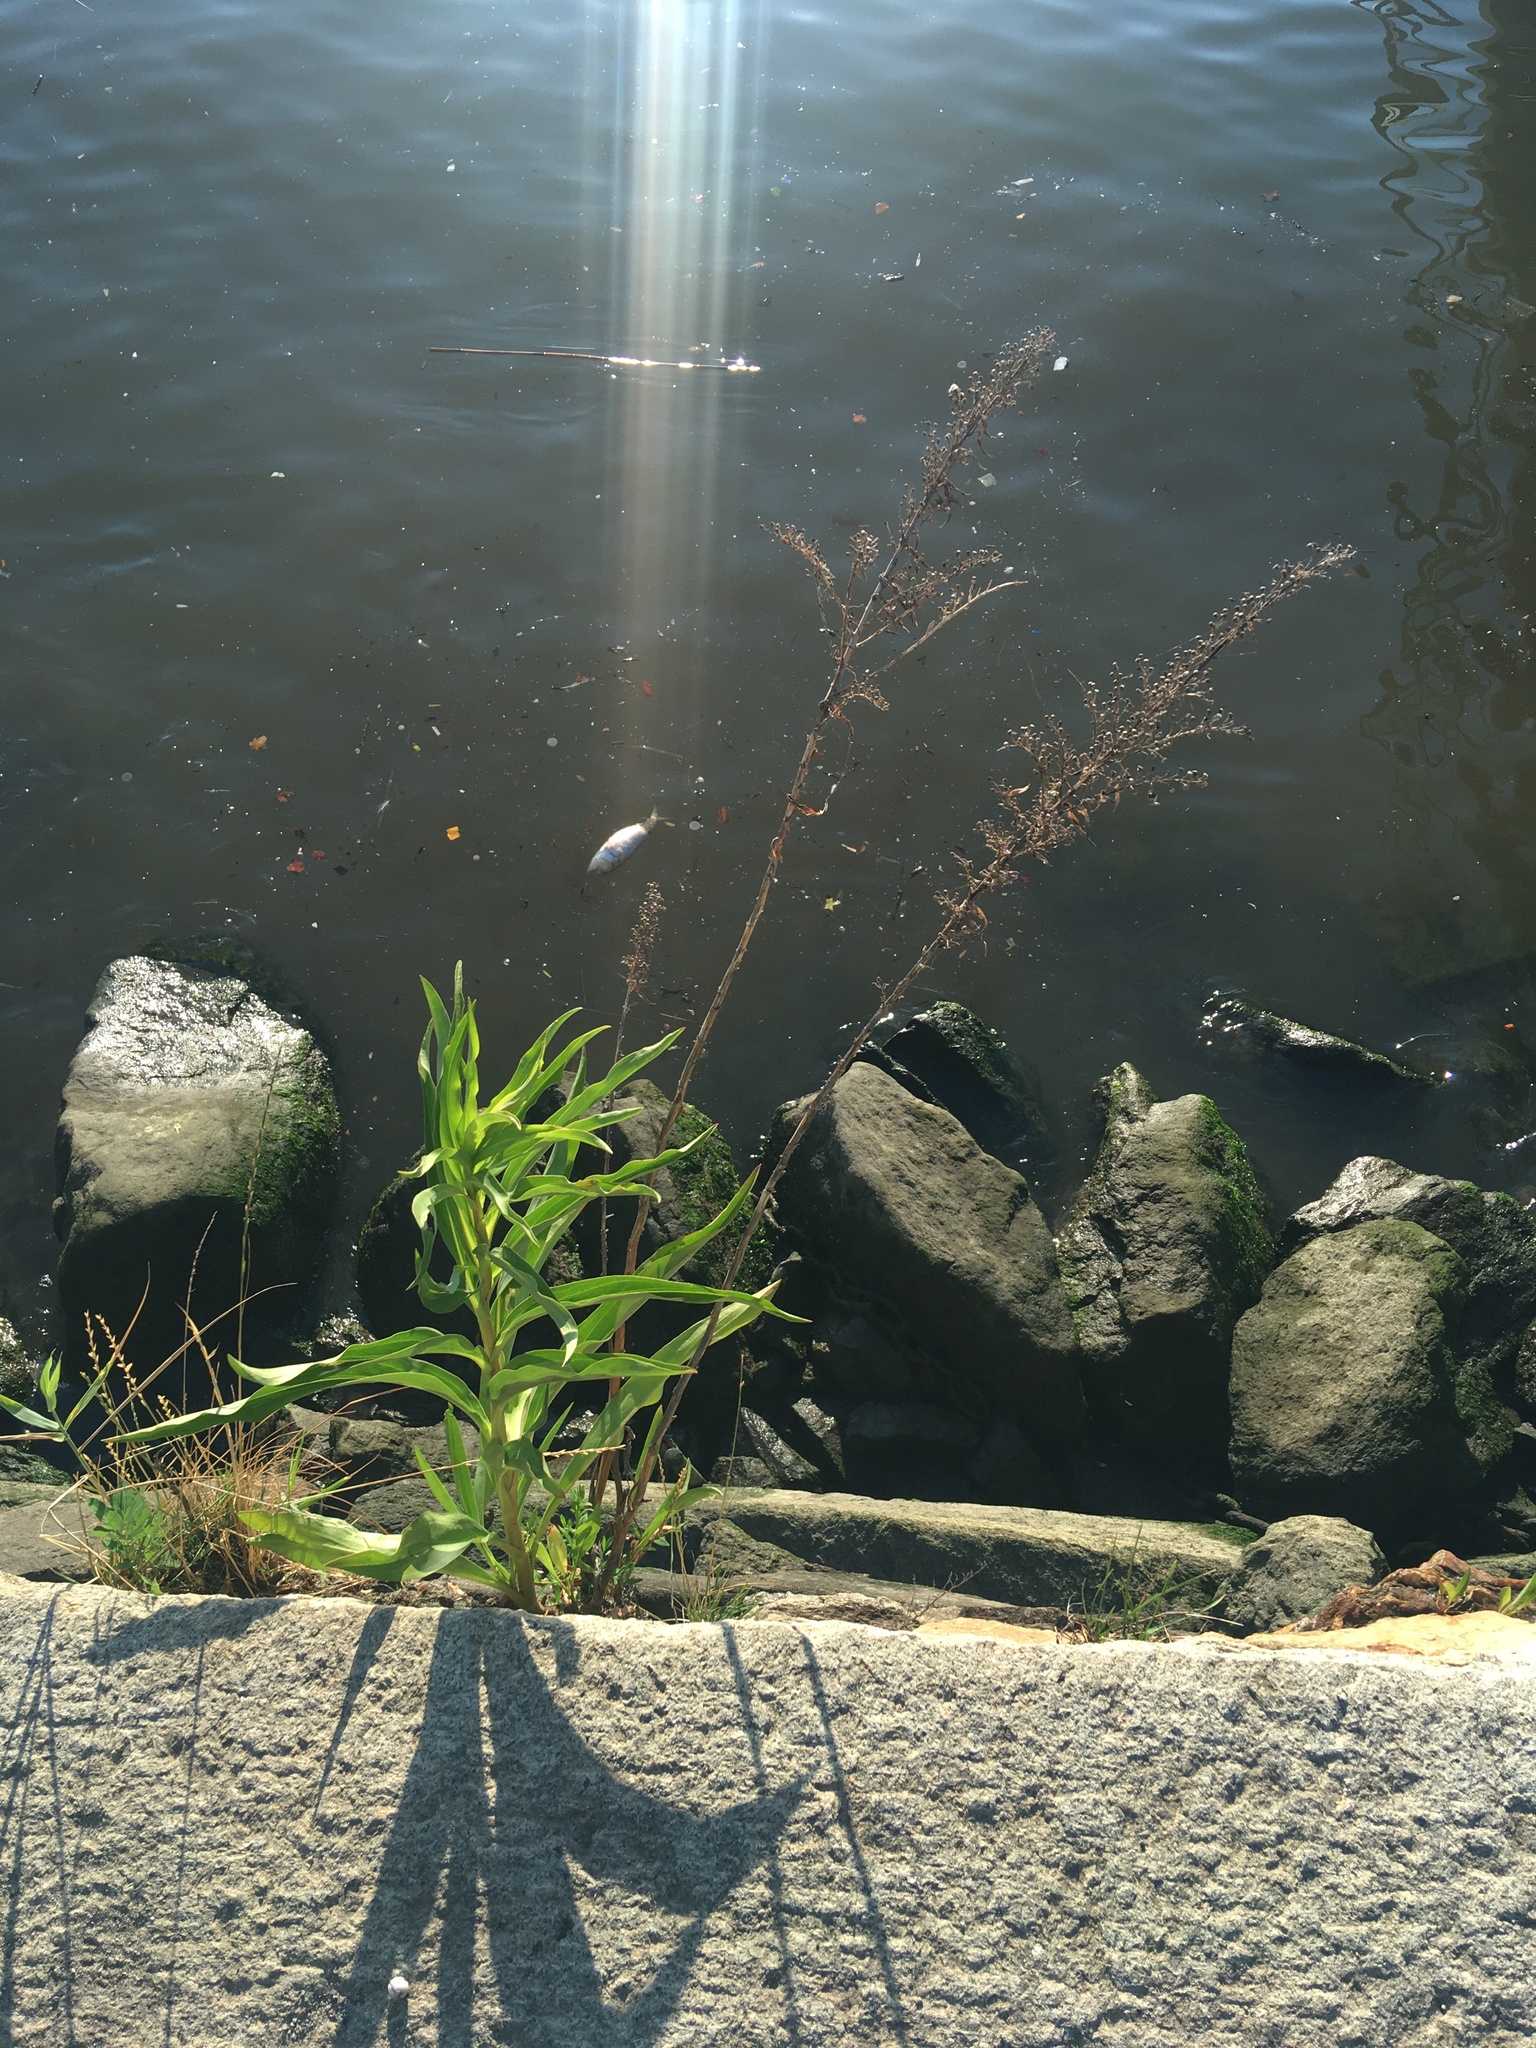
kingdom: Plantae
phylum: Tracheophyta
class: Magnoliopsida
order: Asterales
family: Asteraceae
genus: Solidago
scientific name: Solidago sempervirens
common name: Salt-marsh goldenrod
